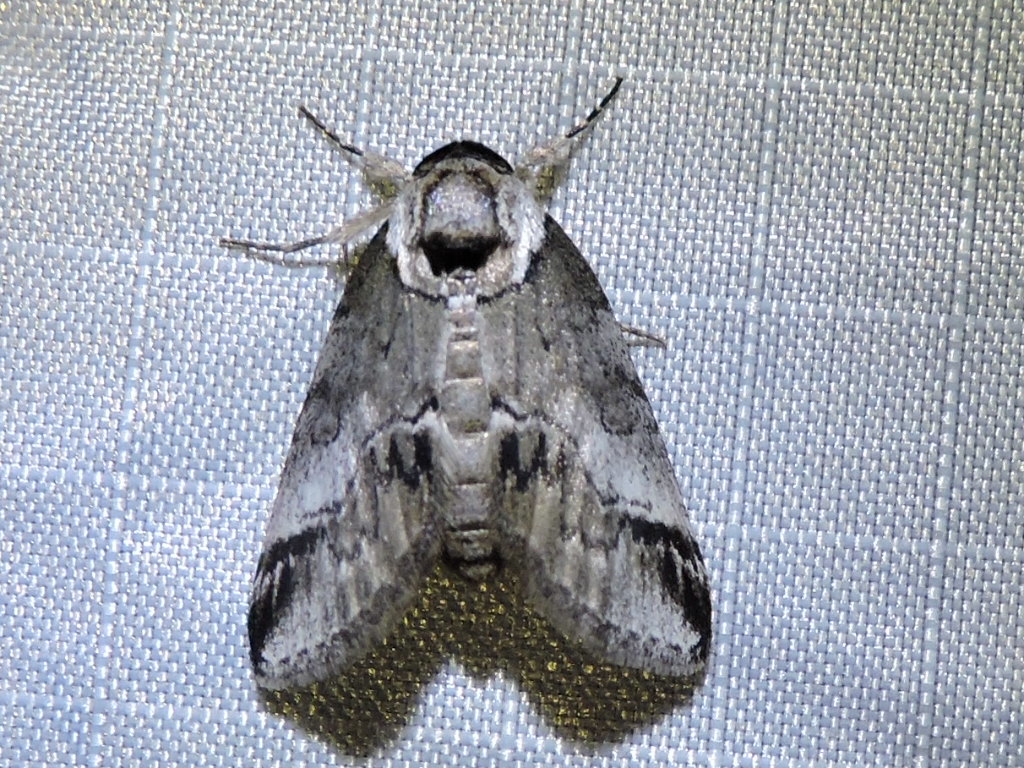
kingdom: Animalia
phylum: Arthropoda
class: Insecta
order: Lepidoptera
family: Nolidae
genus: Baileya
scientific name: Baileya ophthalmica
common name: Eyed baileya moth
